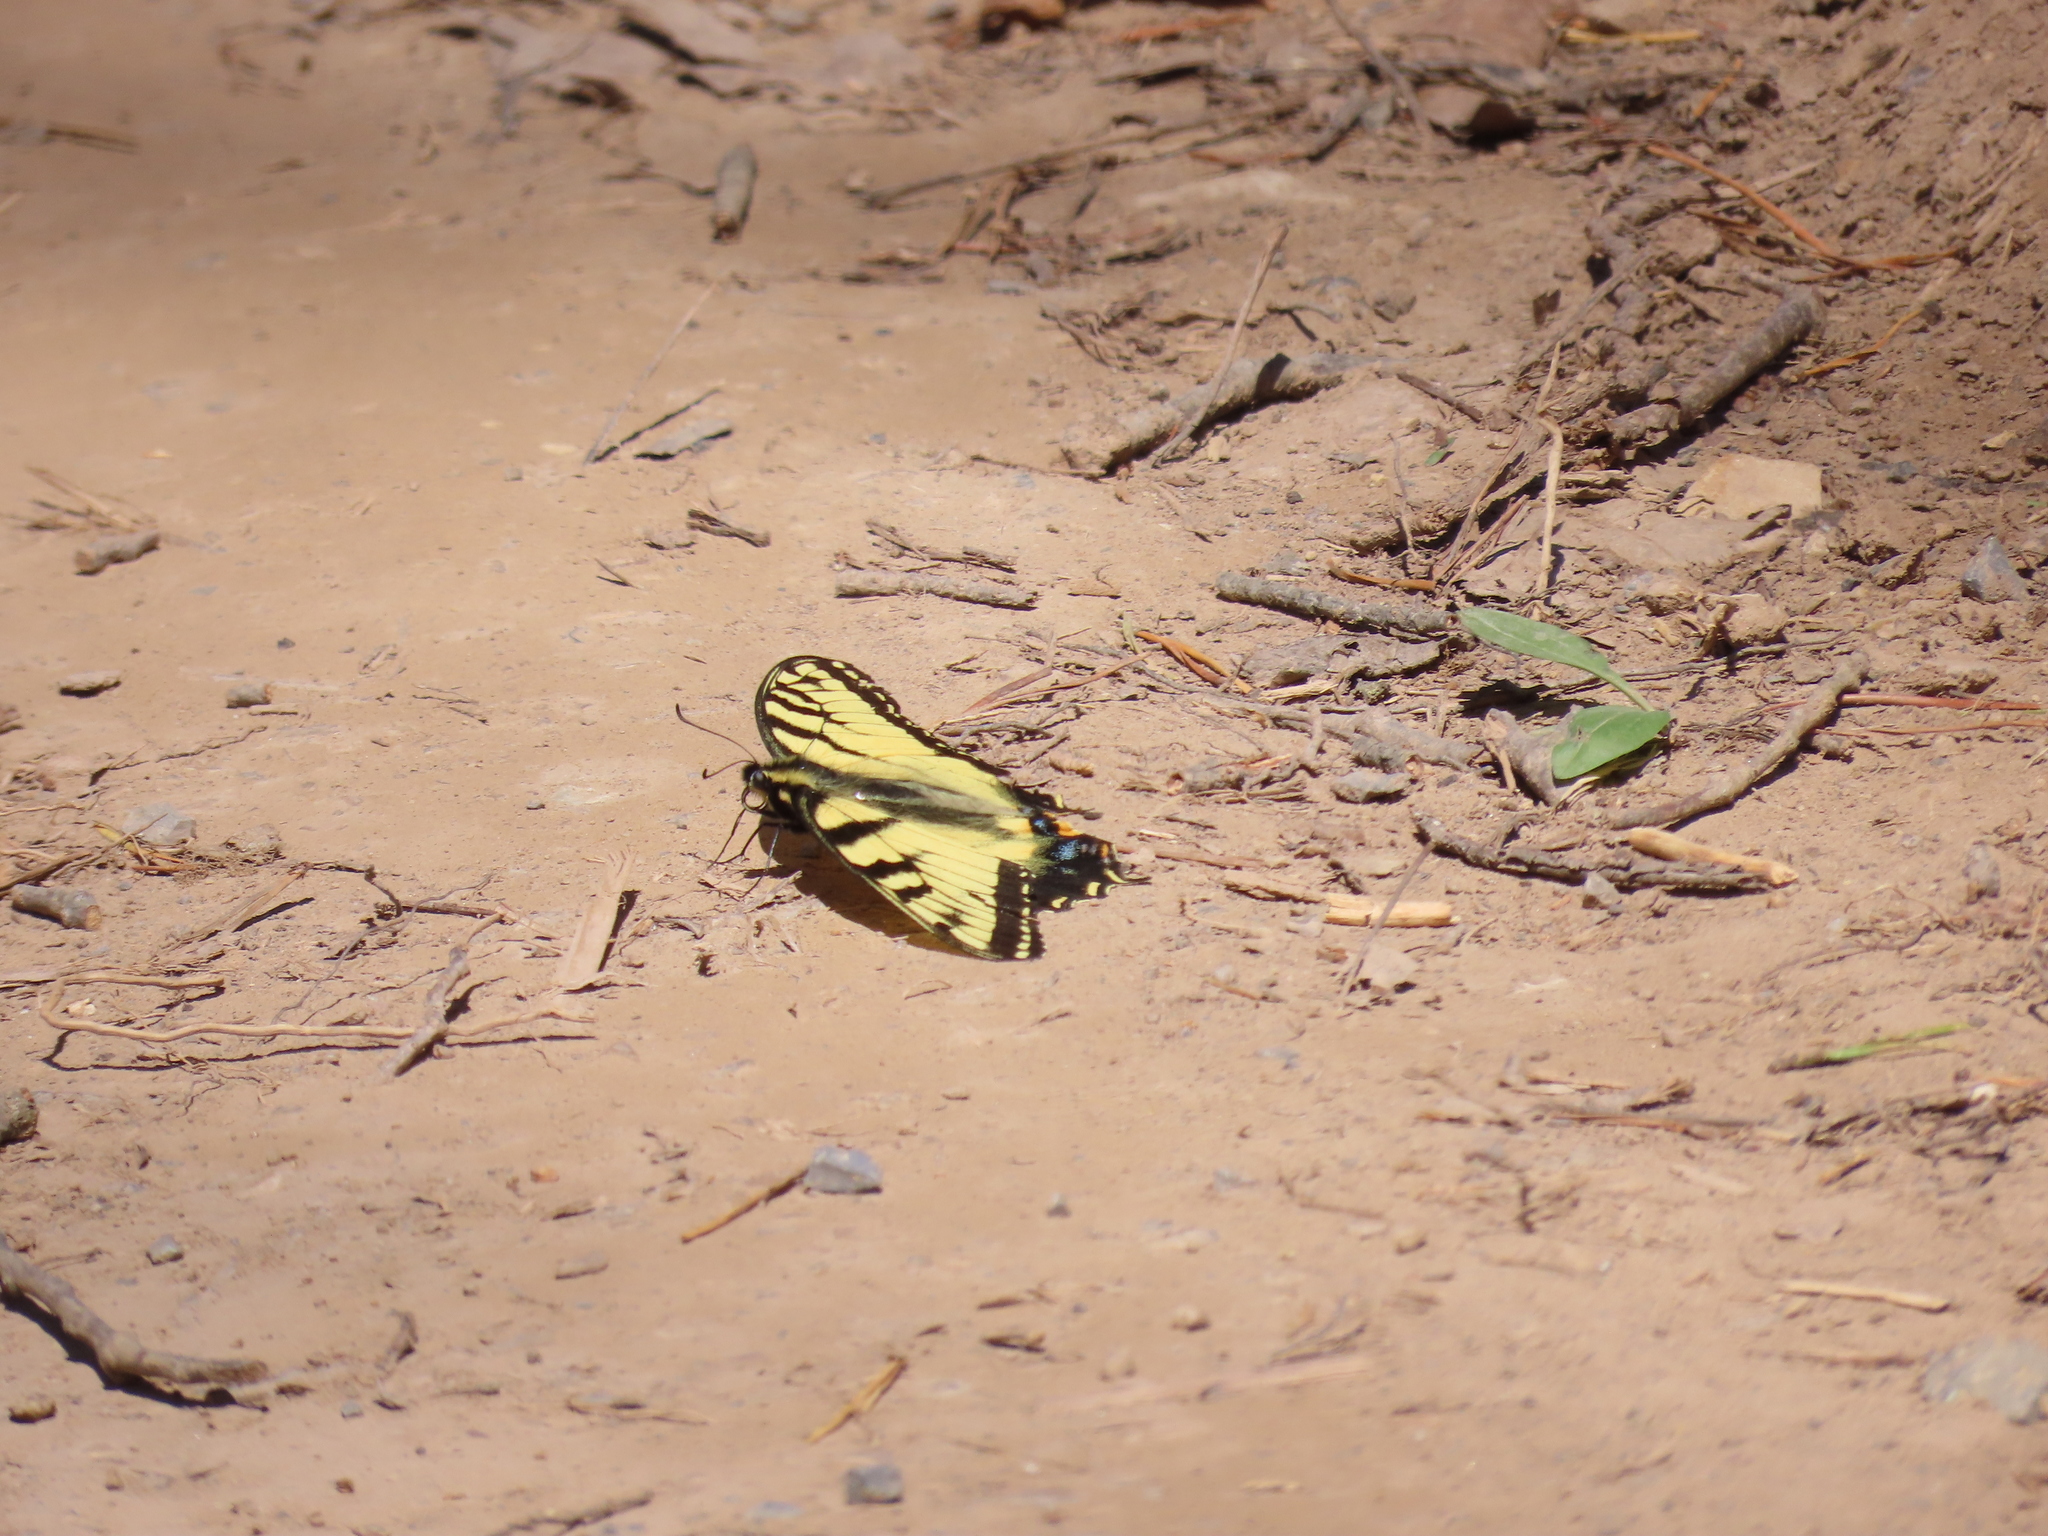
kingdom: Animalia
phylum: Arthropoda
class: Insecta
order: Lepidoptera
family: Papilionidae
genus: Papilio
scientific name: Papilio glaucus
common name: Tiger swallowtail
